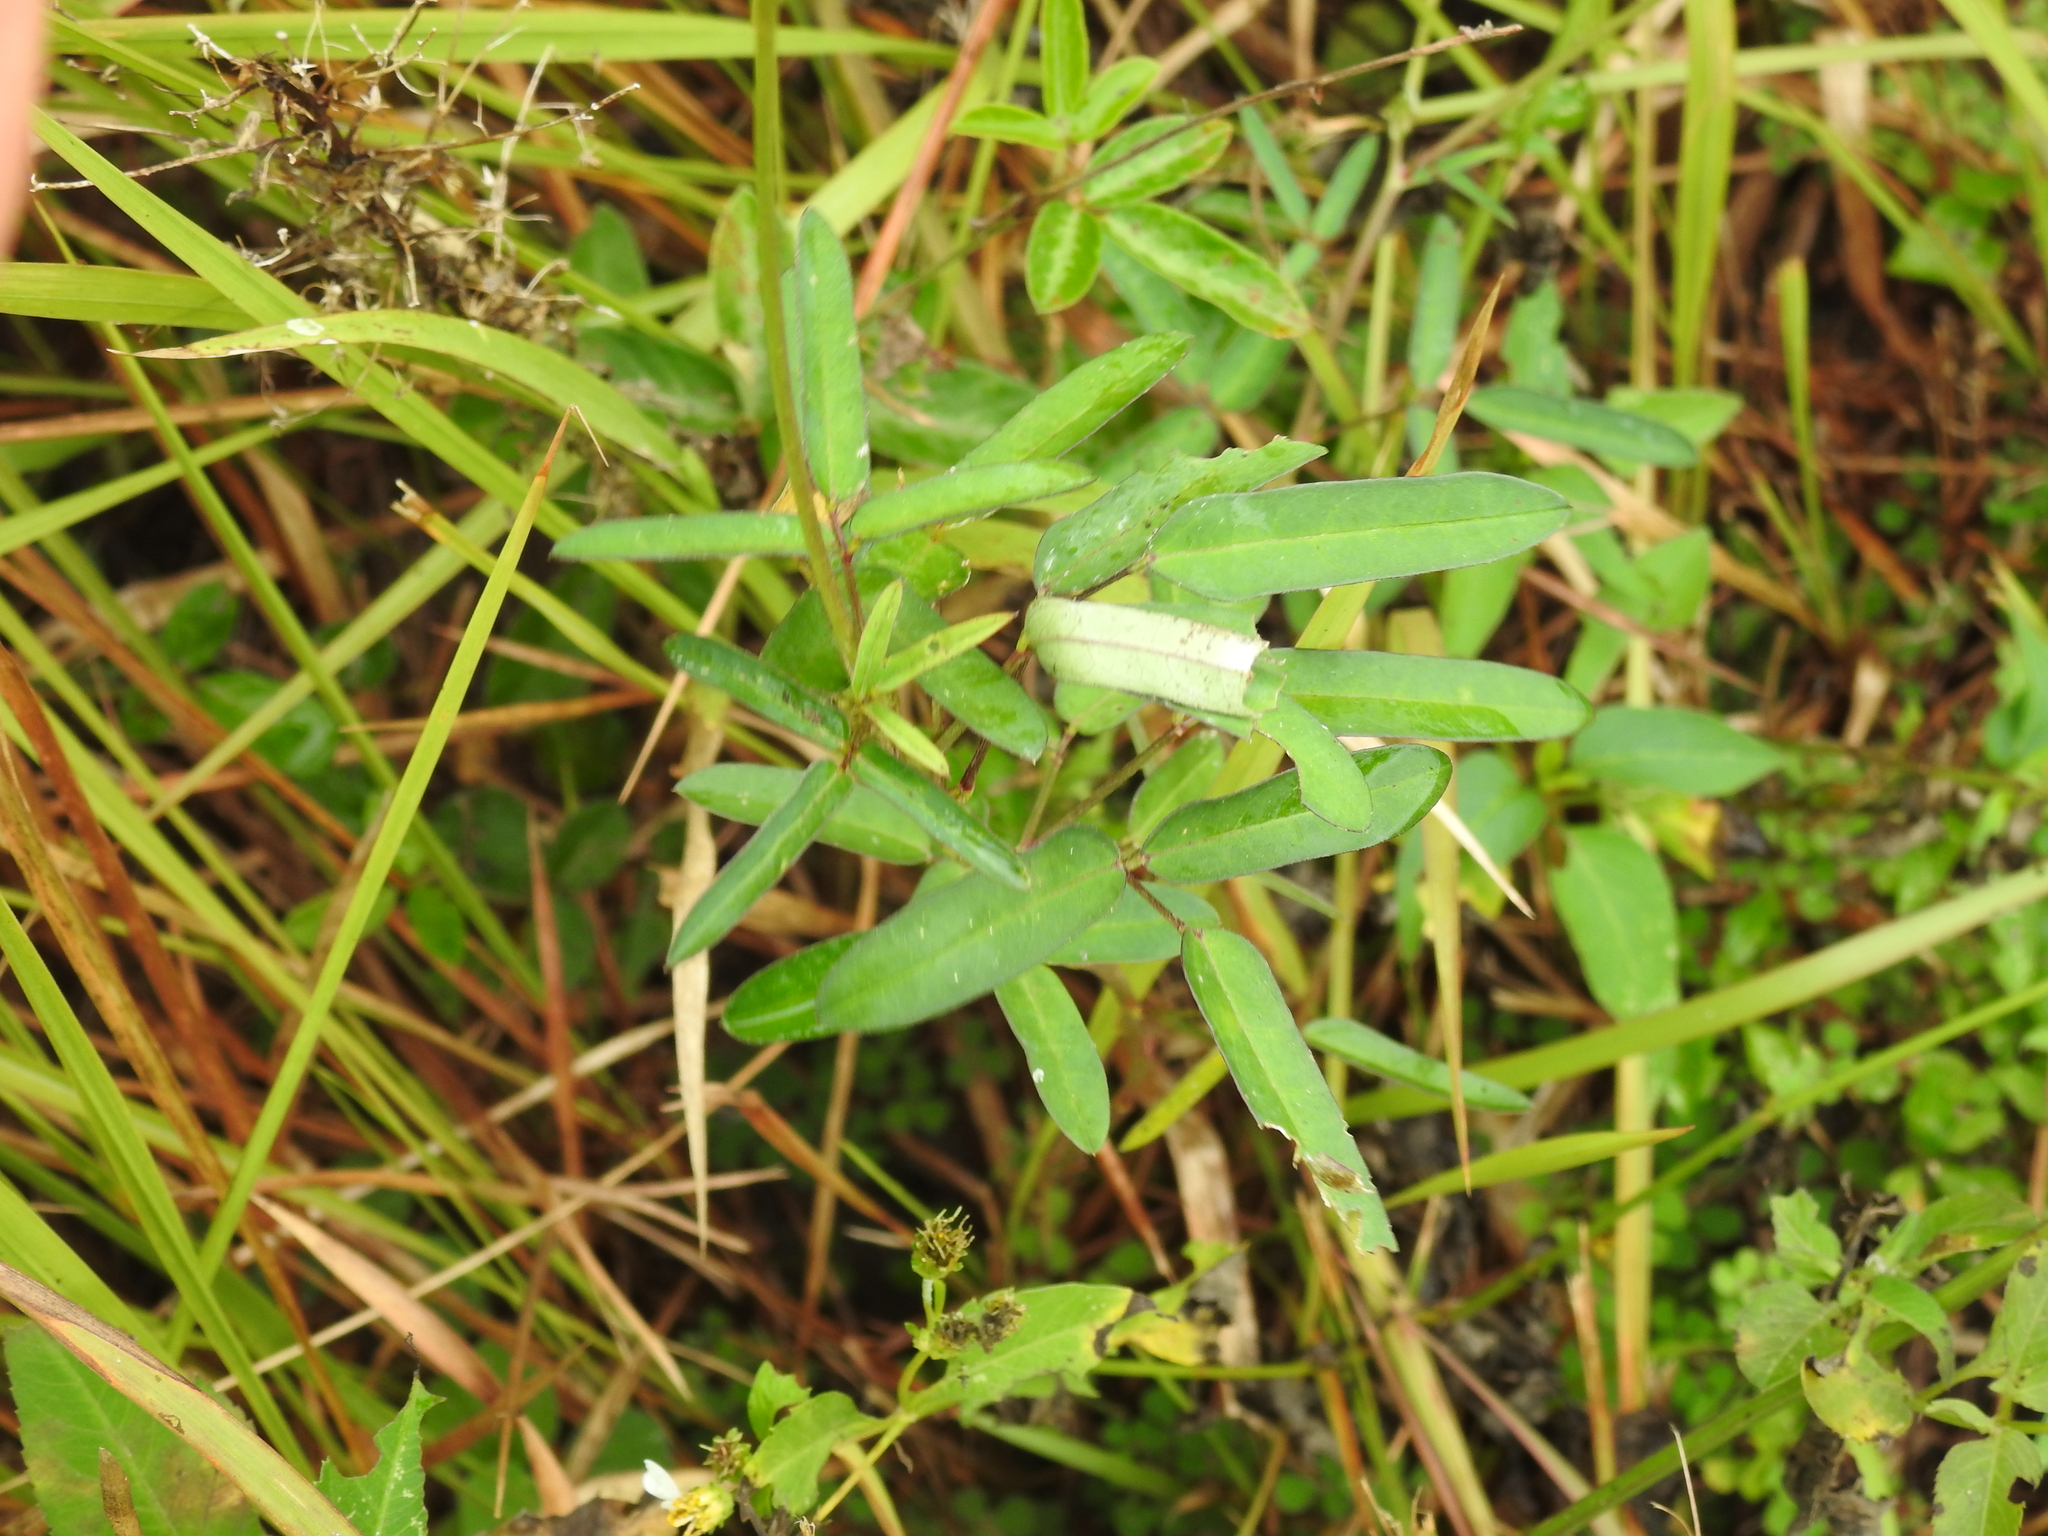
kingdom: Plantae
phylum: Tracheophyta
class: Magnoliopsida
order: Fabales
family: Fabaceae
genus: Macroptilium
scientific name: Macroptilium lathyroides
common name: Wild bushbean
